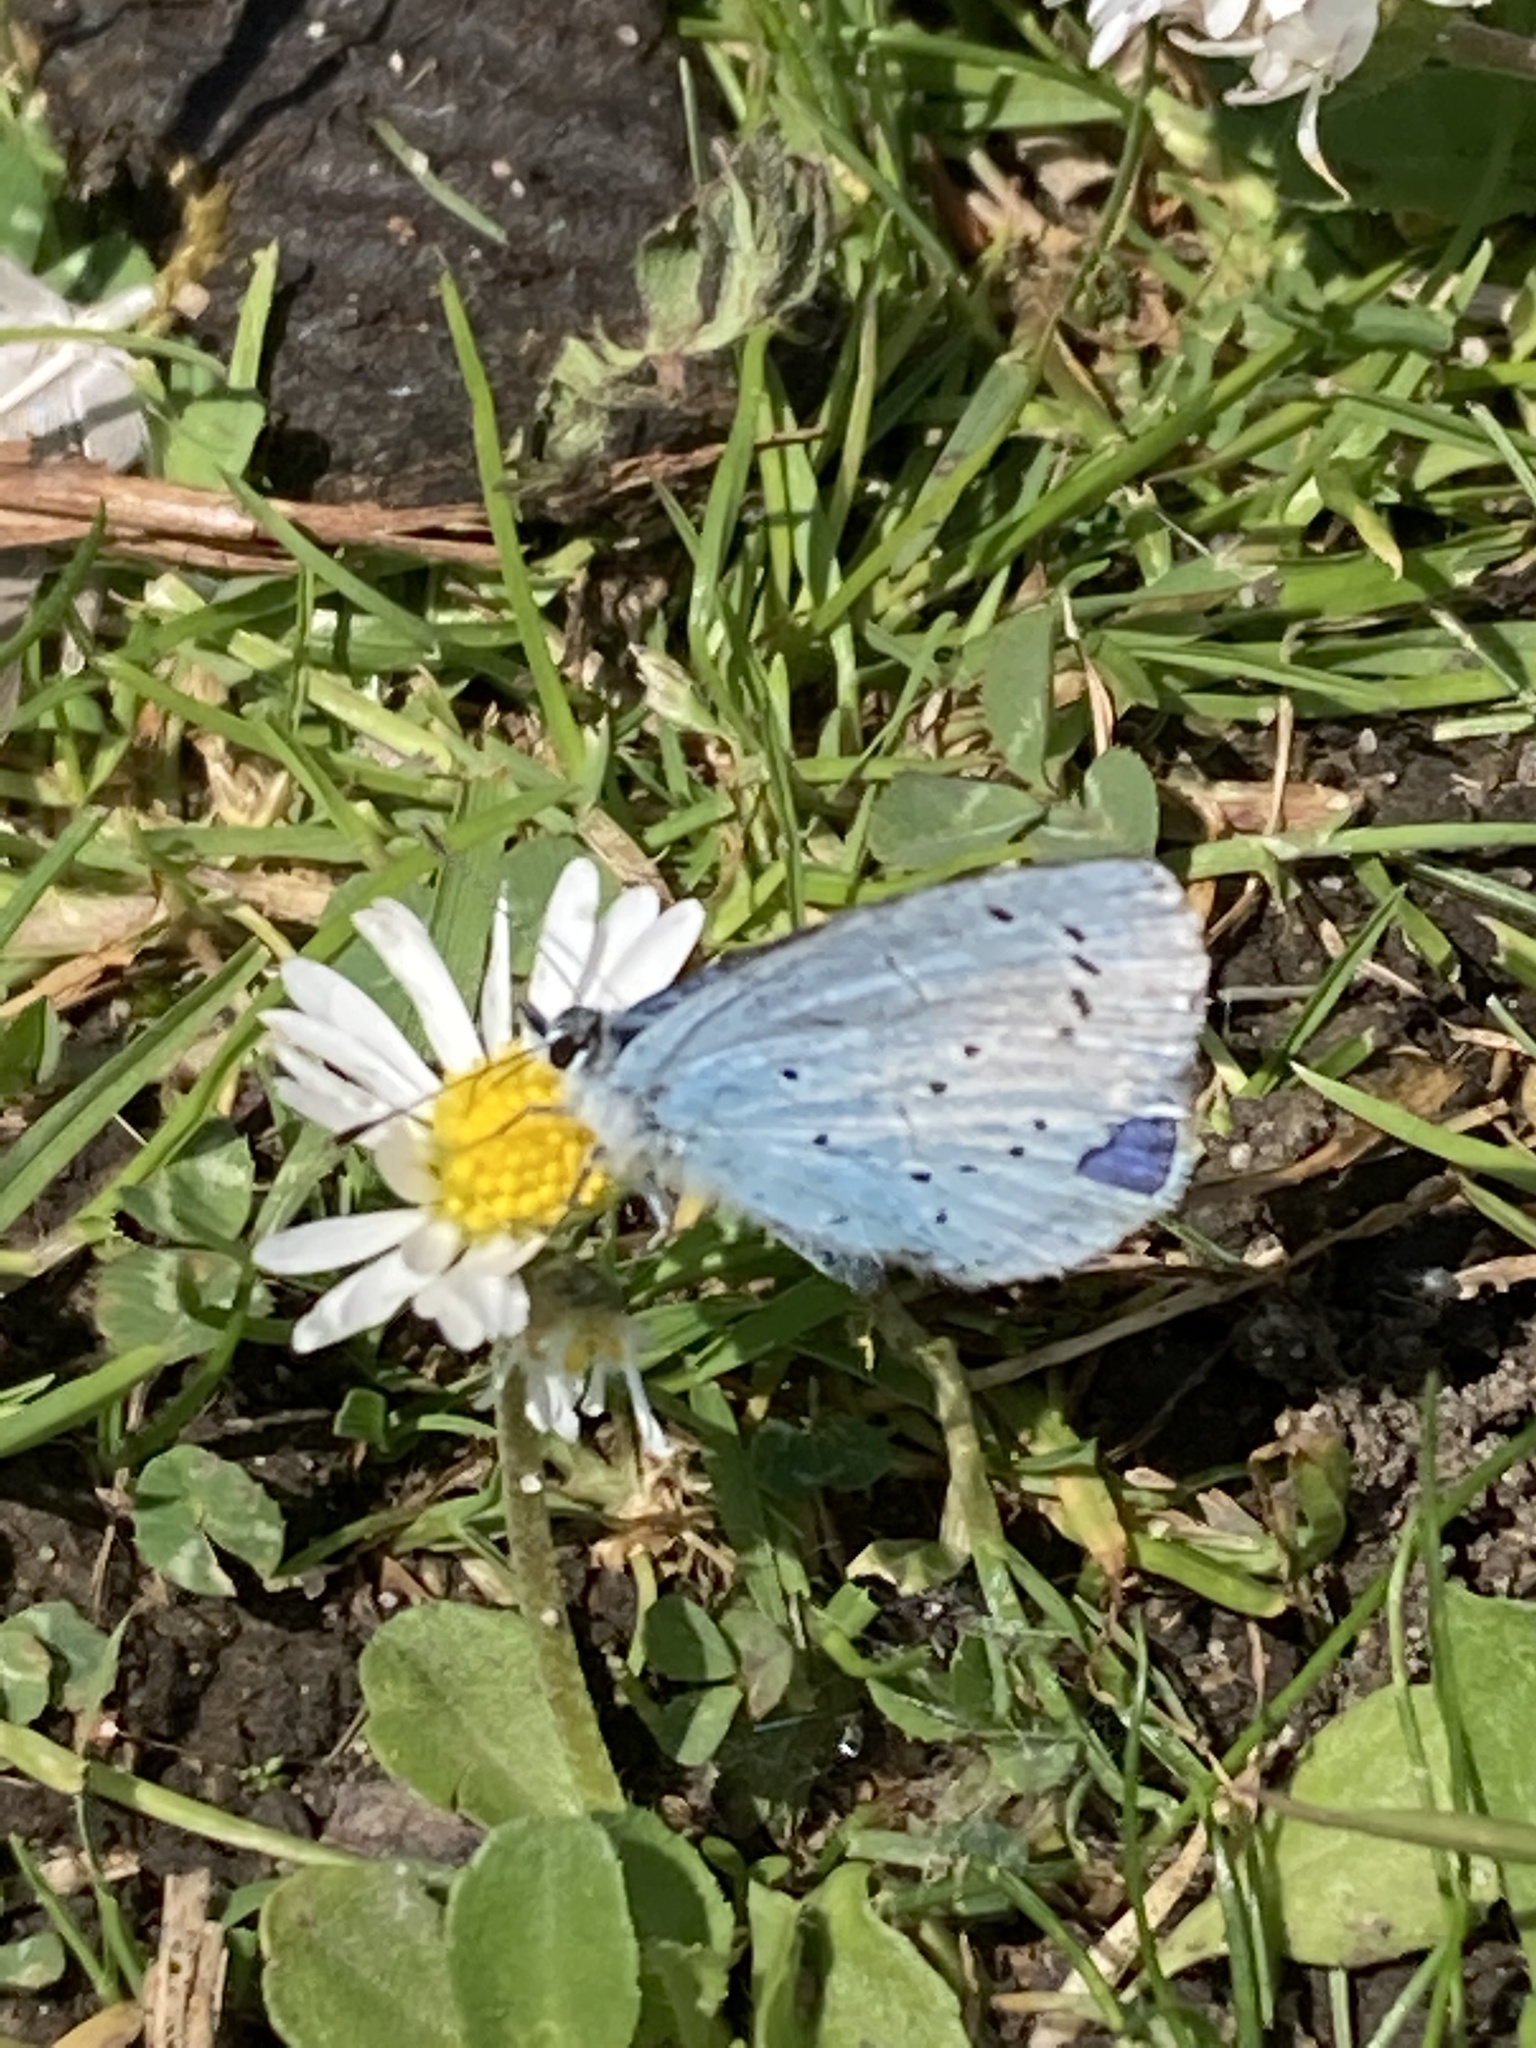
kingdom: Animalia
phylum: Arthropoda
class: Insecta
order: Lepidoptera
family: Lycaenidae
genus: Celastrina
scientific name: Celastrina argiolus
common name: Holly blue
